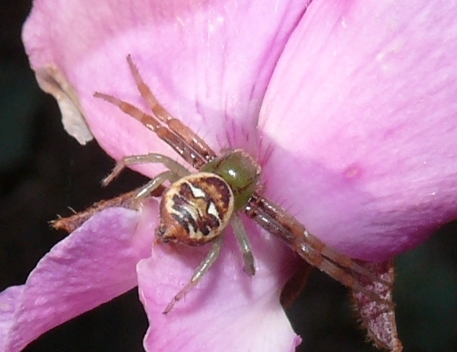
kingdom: Animalia
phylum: Arthropoda
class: Arachnida
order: Araneae
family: Thomisidae
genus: Synema
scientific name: Synema imitatrix
